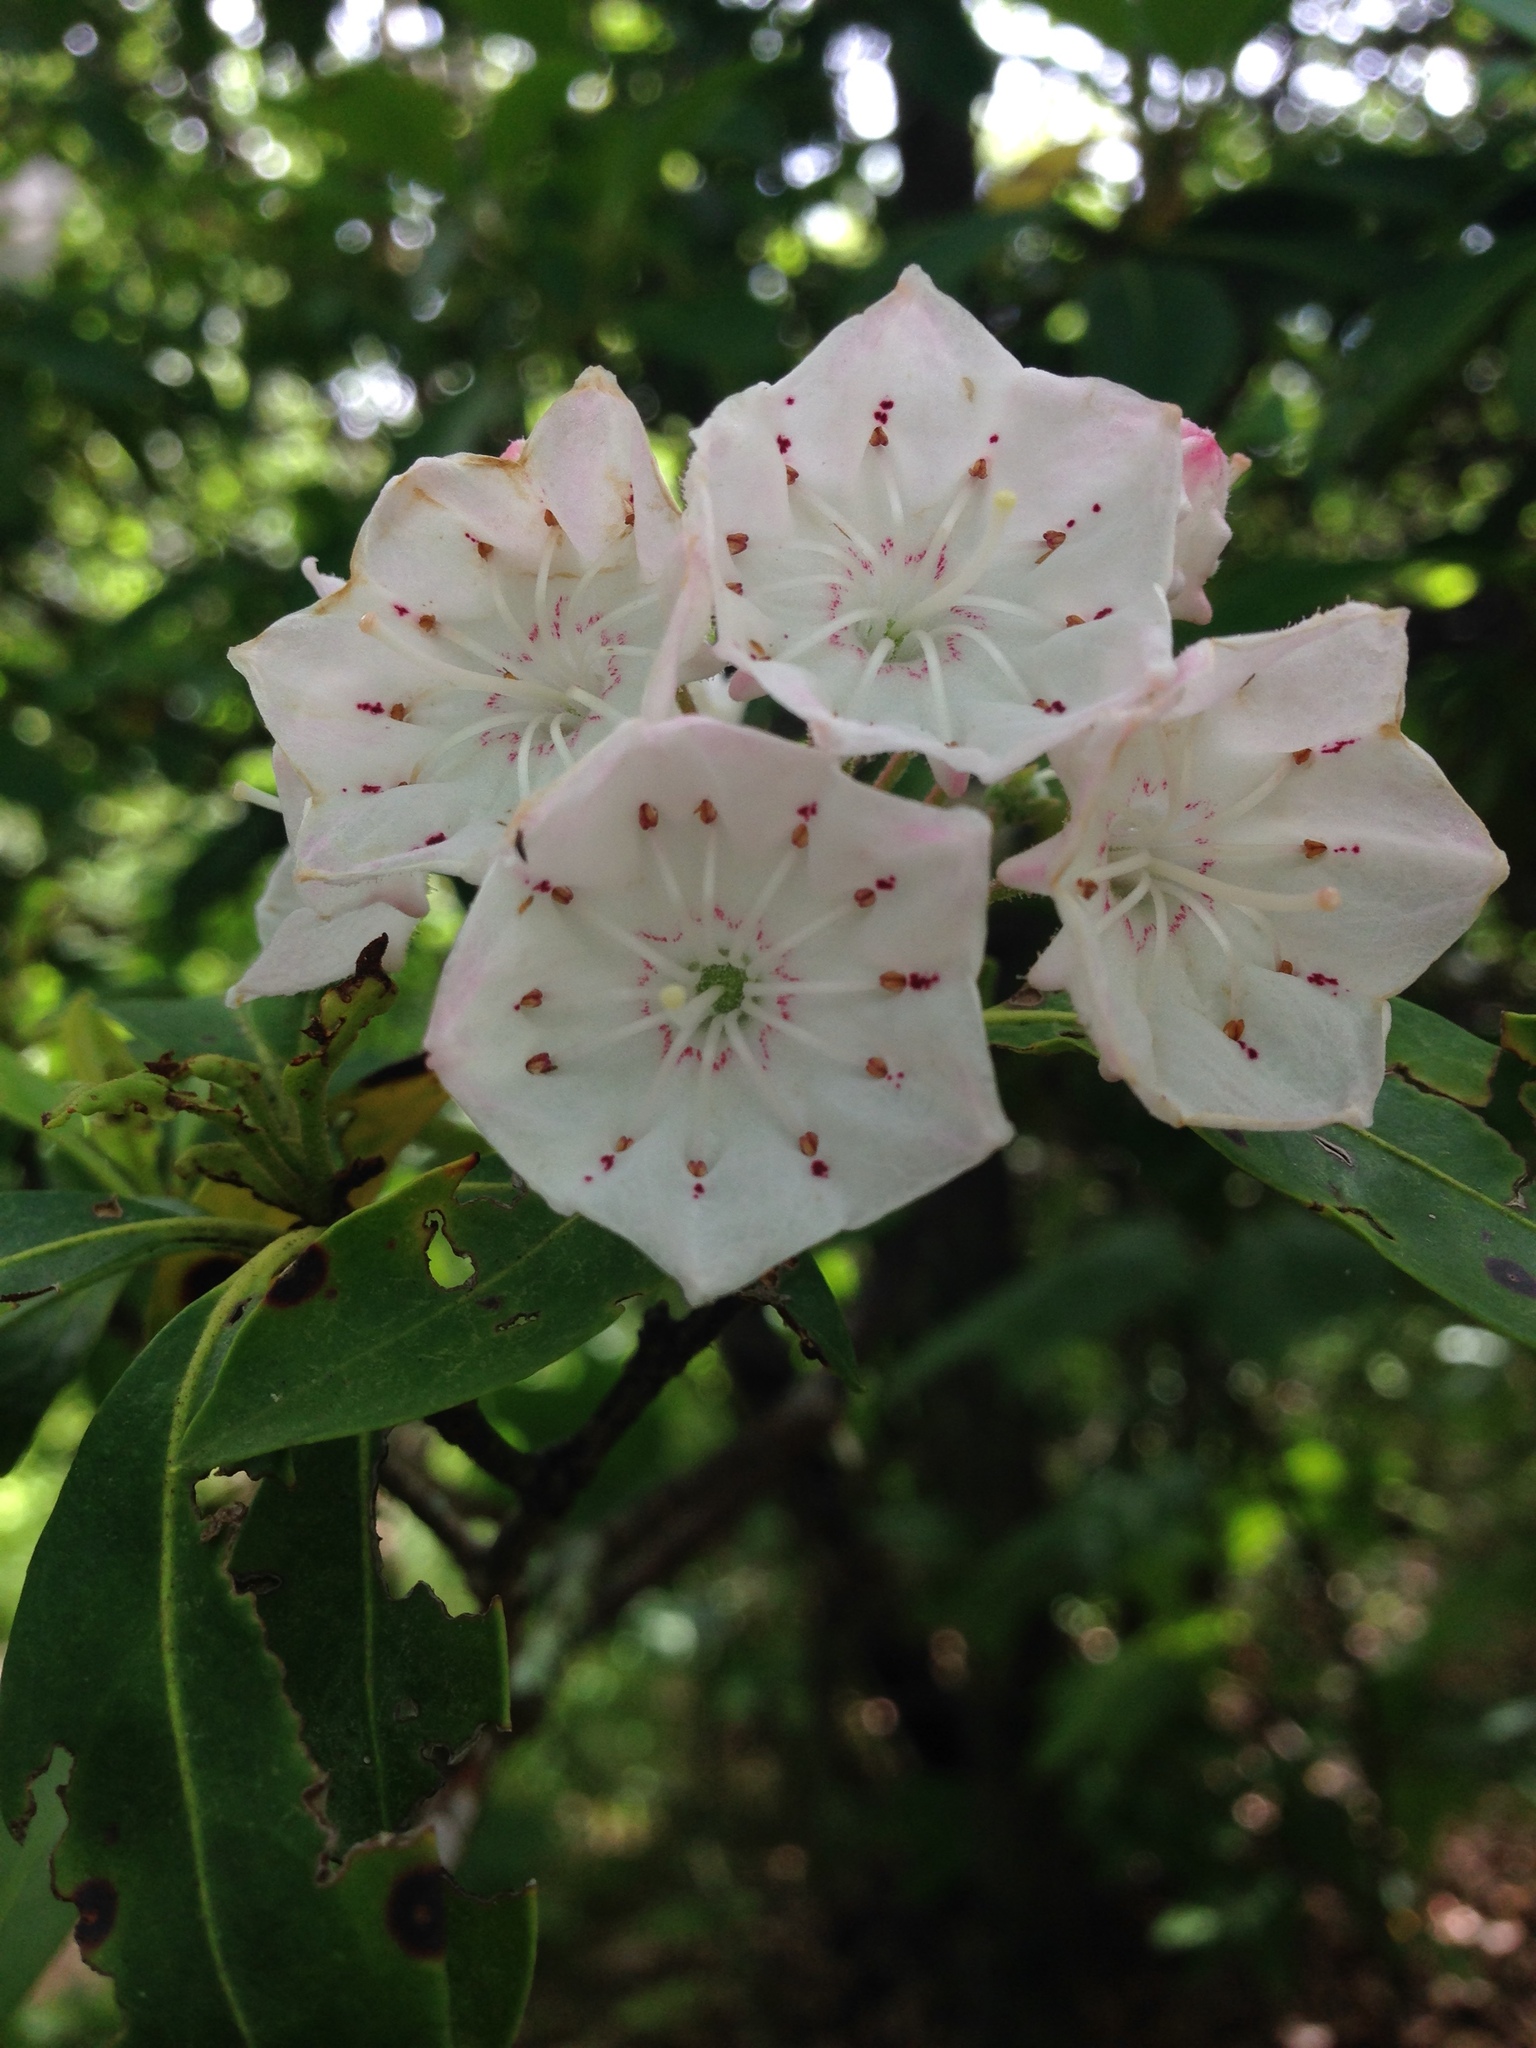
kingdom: Plantae
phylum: Tracheophyta
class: Magnoliopsida
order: Ericales
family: Ericaceae
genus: Kalmia
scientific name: Kalmia latifolia
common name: Mountain-laurel
